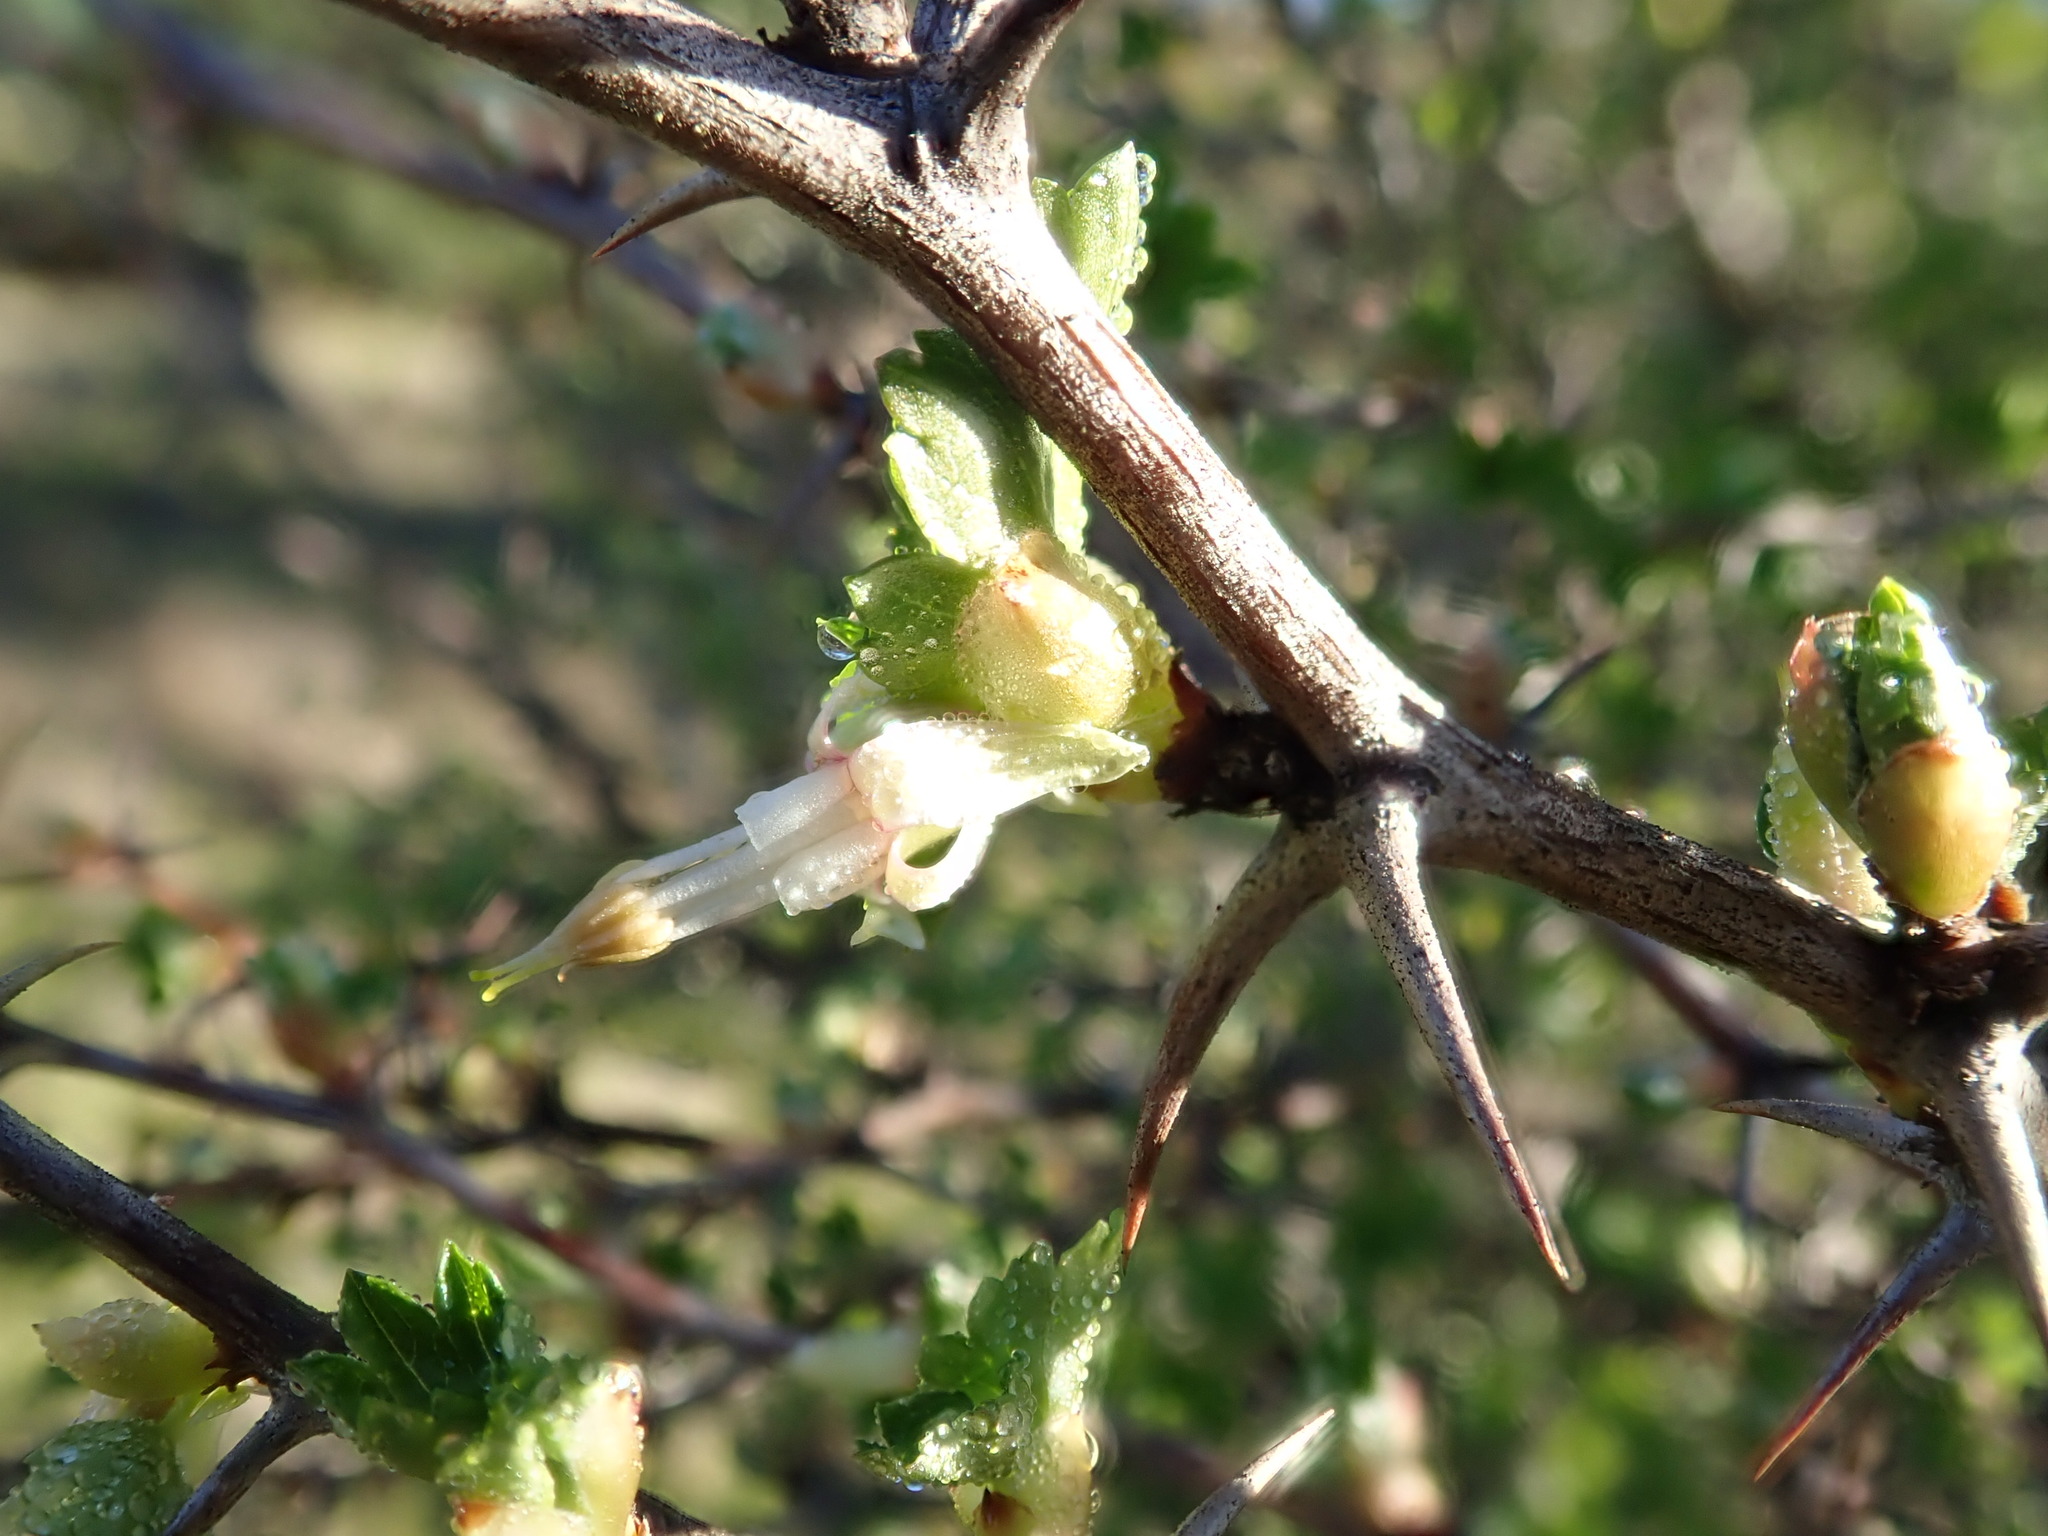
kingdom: Plantae
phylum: Tracheophyta
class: Magnoliopsida
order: Saxifragales
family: Grossulariaceae
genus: Ribes
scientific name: Ribes californicum
